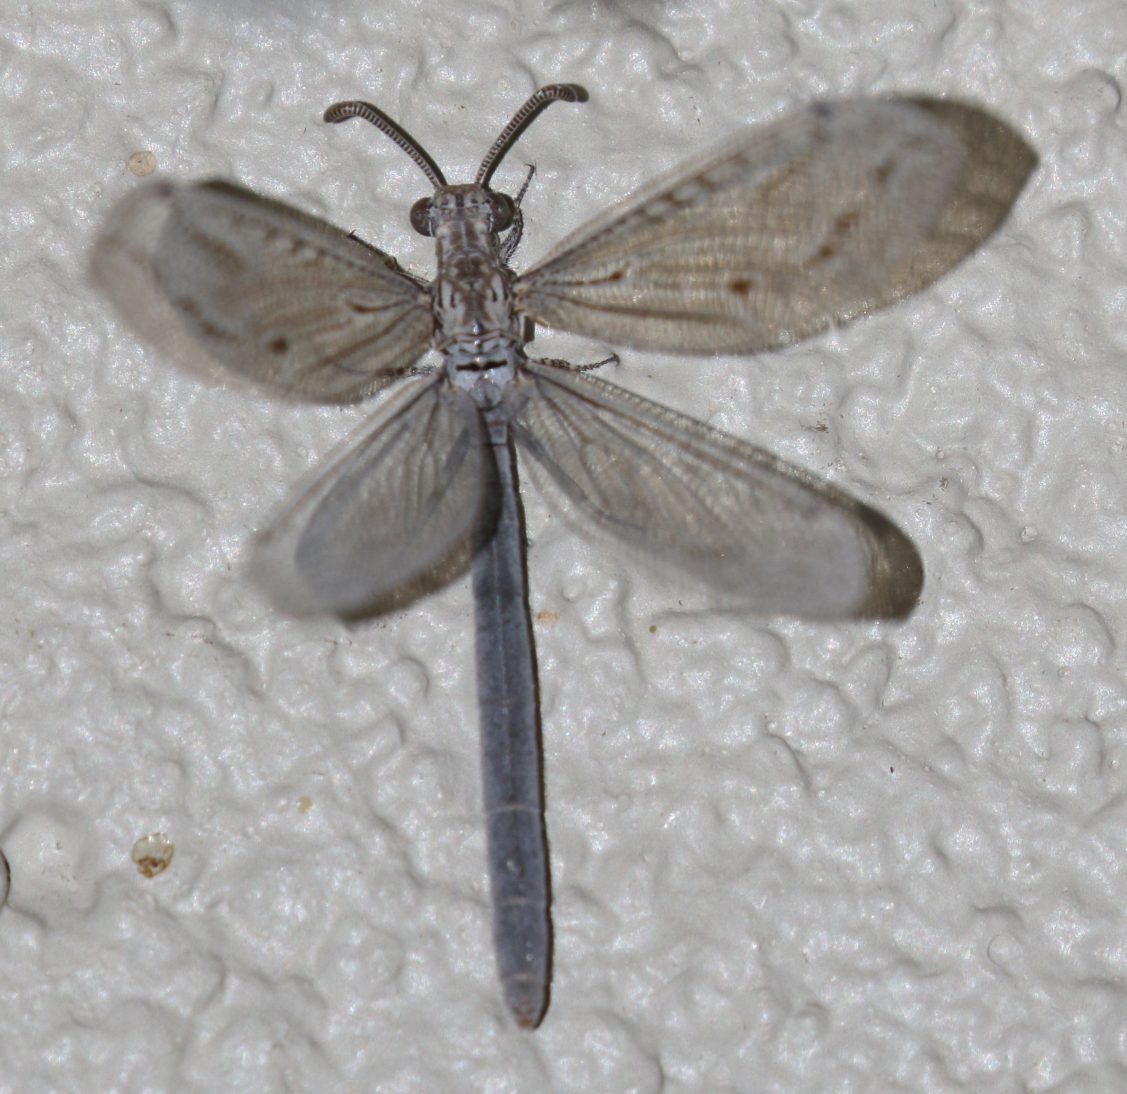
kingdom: Animalia
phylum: Arthropoda
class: Insecta
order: Neuroptera
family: Myrmeleontidae
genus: Creoleon
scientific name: Creoleon mortifer
